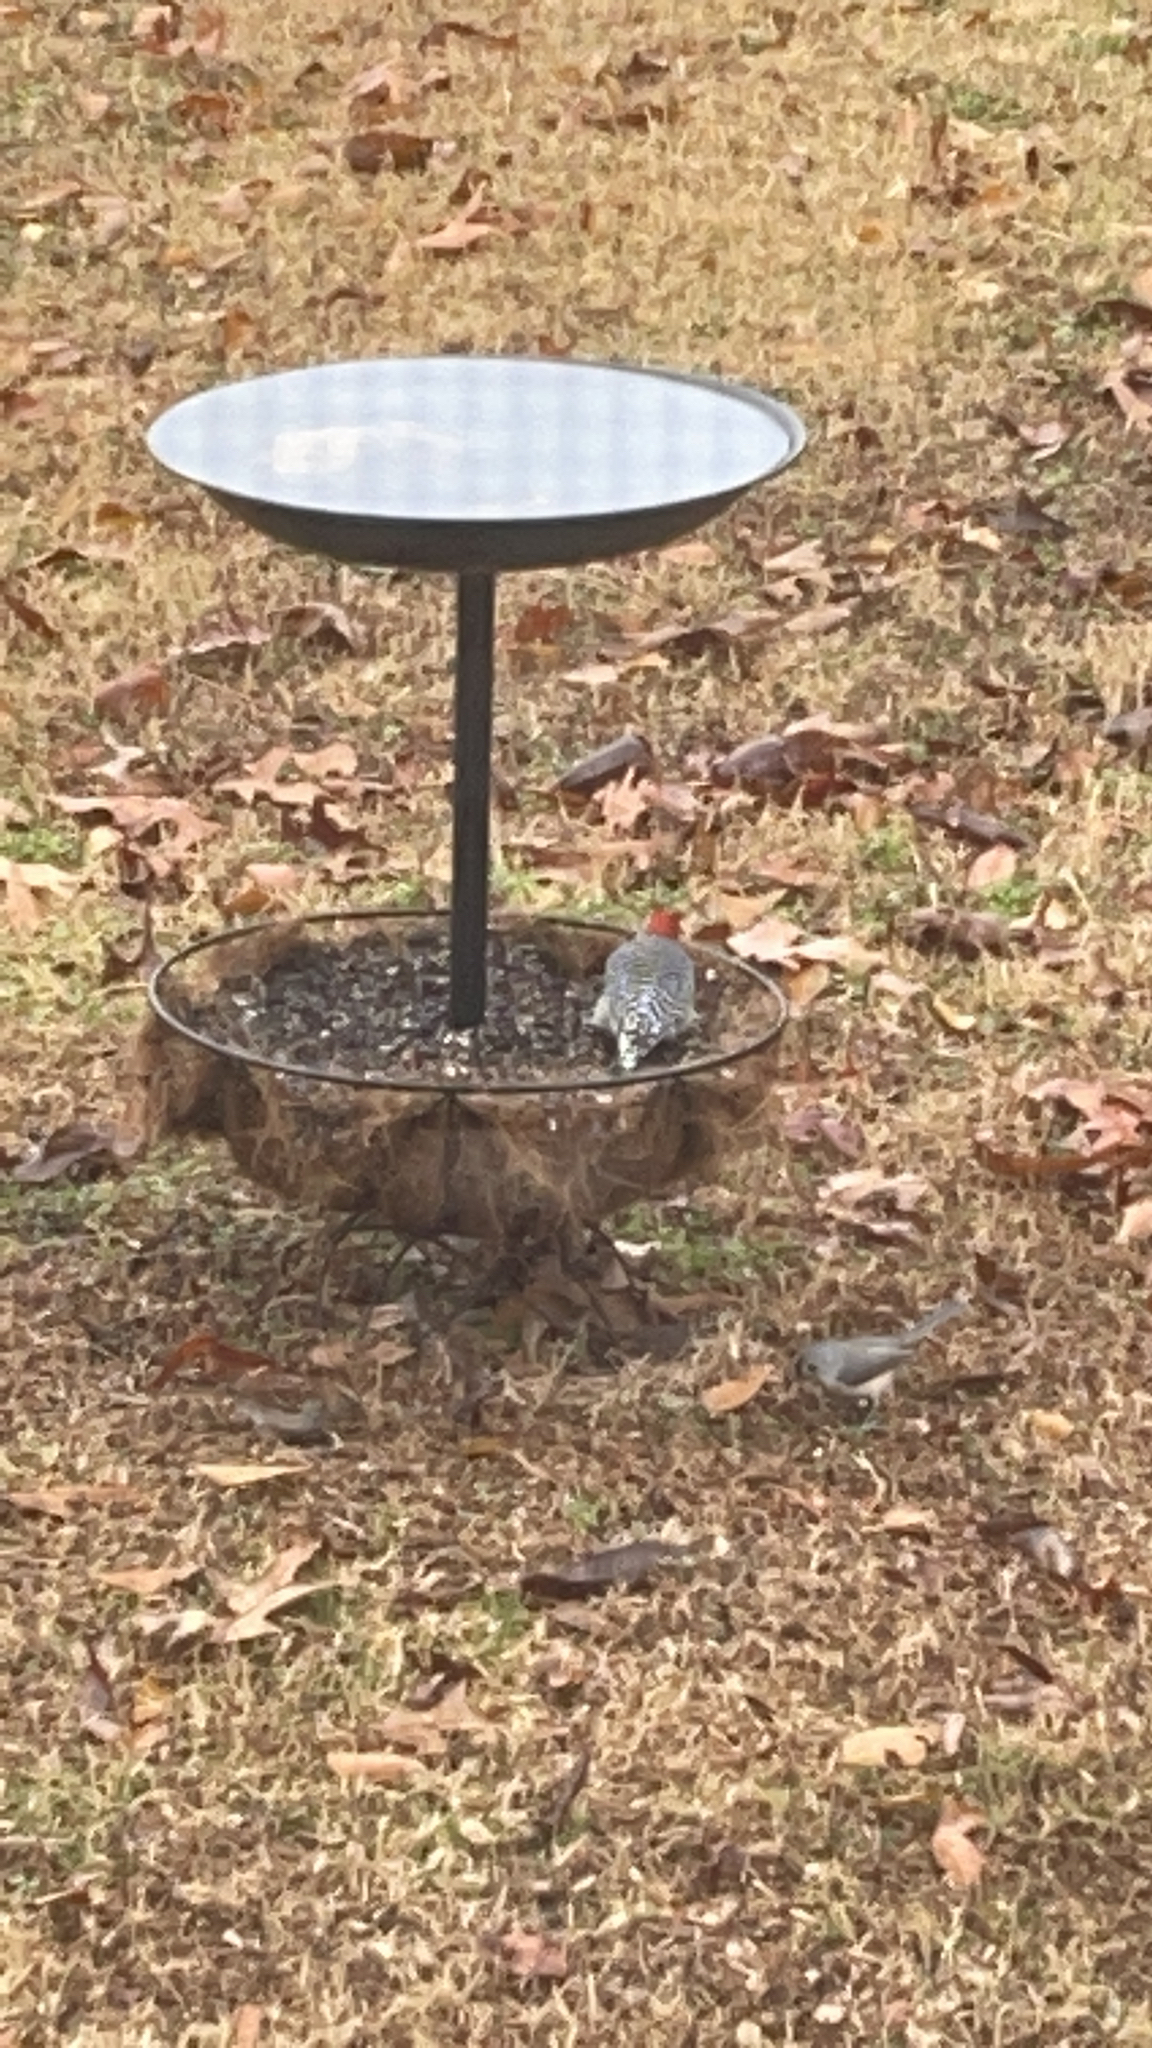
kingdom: Animalia
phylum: Chordata
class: Aves
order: Piciformes
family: Picidae
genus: Melanerpes
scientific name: Melanerpes carolinus
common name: Red-bellied woodpecker
